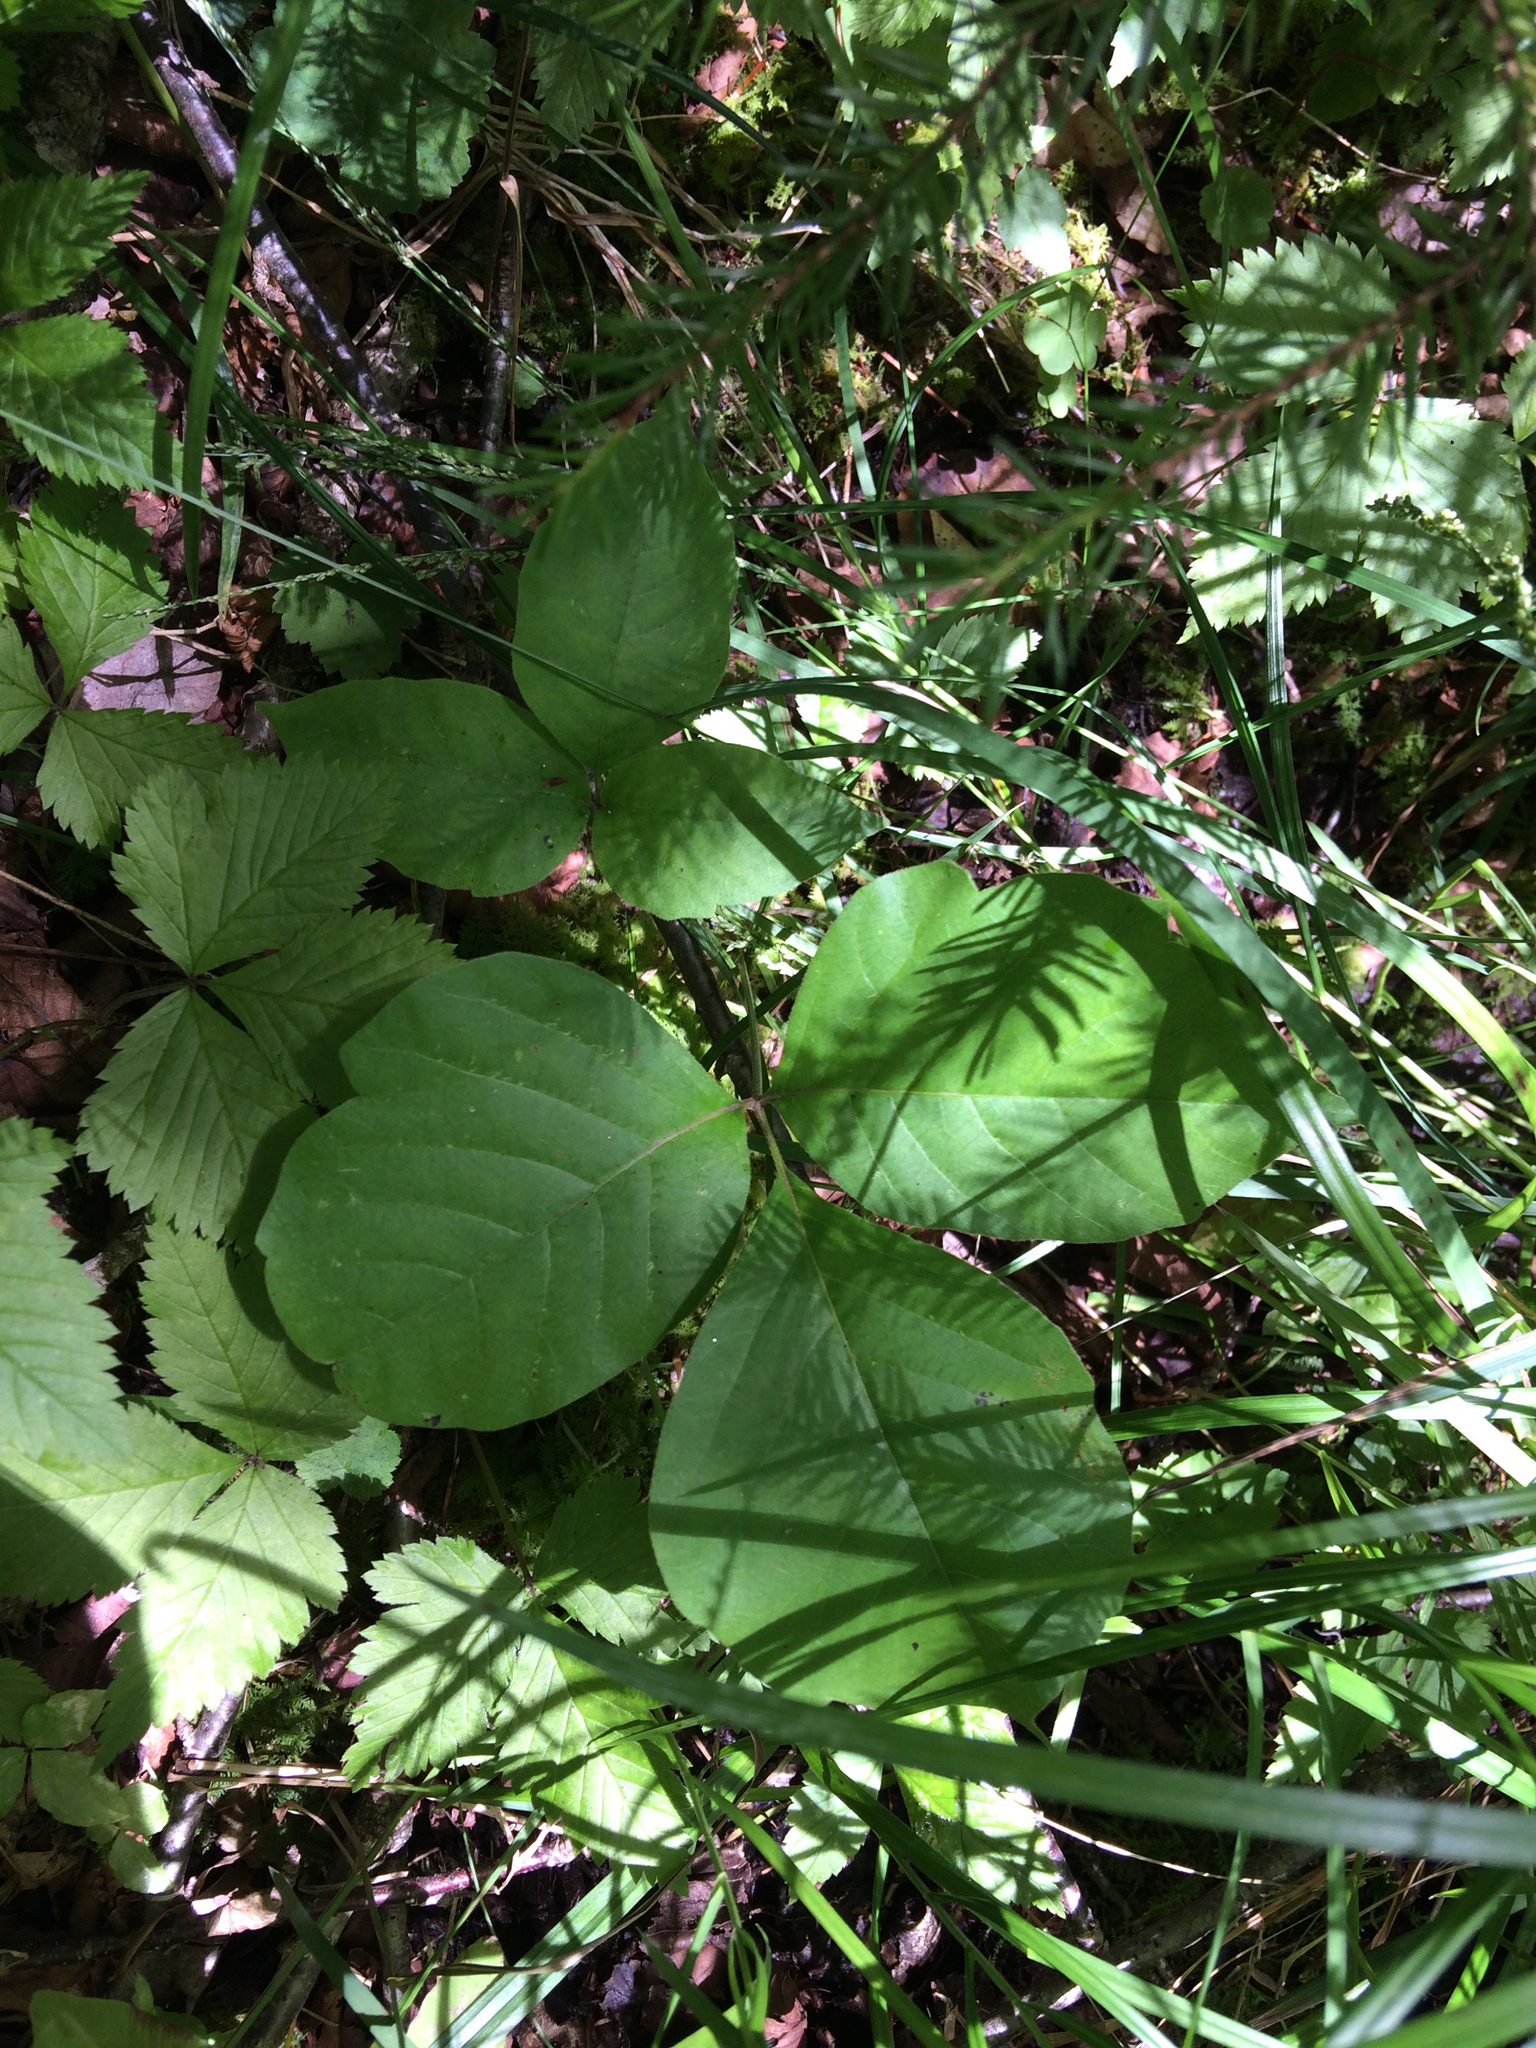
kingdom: Plantae
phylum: Tracheophyta
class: Magnoliopsida
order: Sapindales
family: Anacardiaceae
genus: Toxicodendron
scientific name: Toxicodendron radicans
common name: Poison ivy
